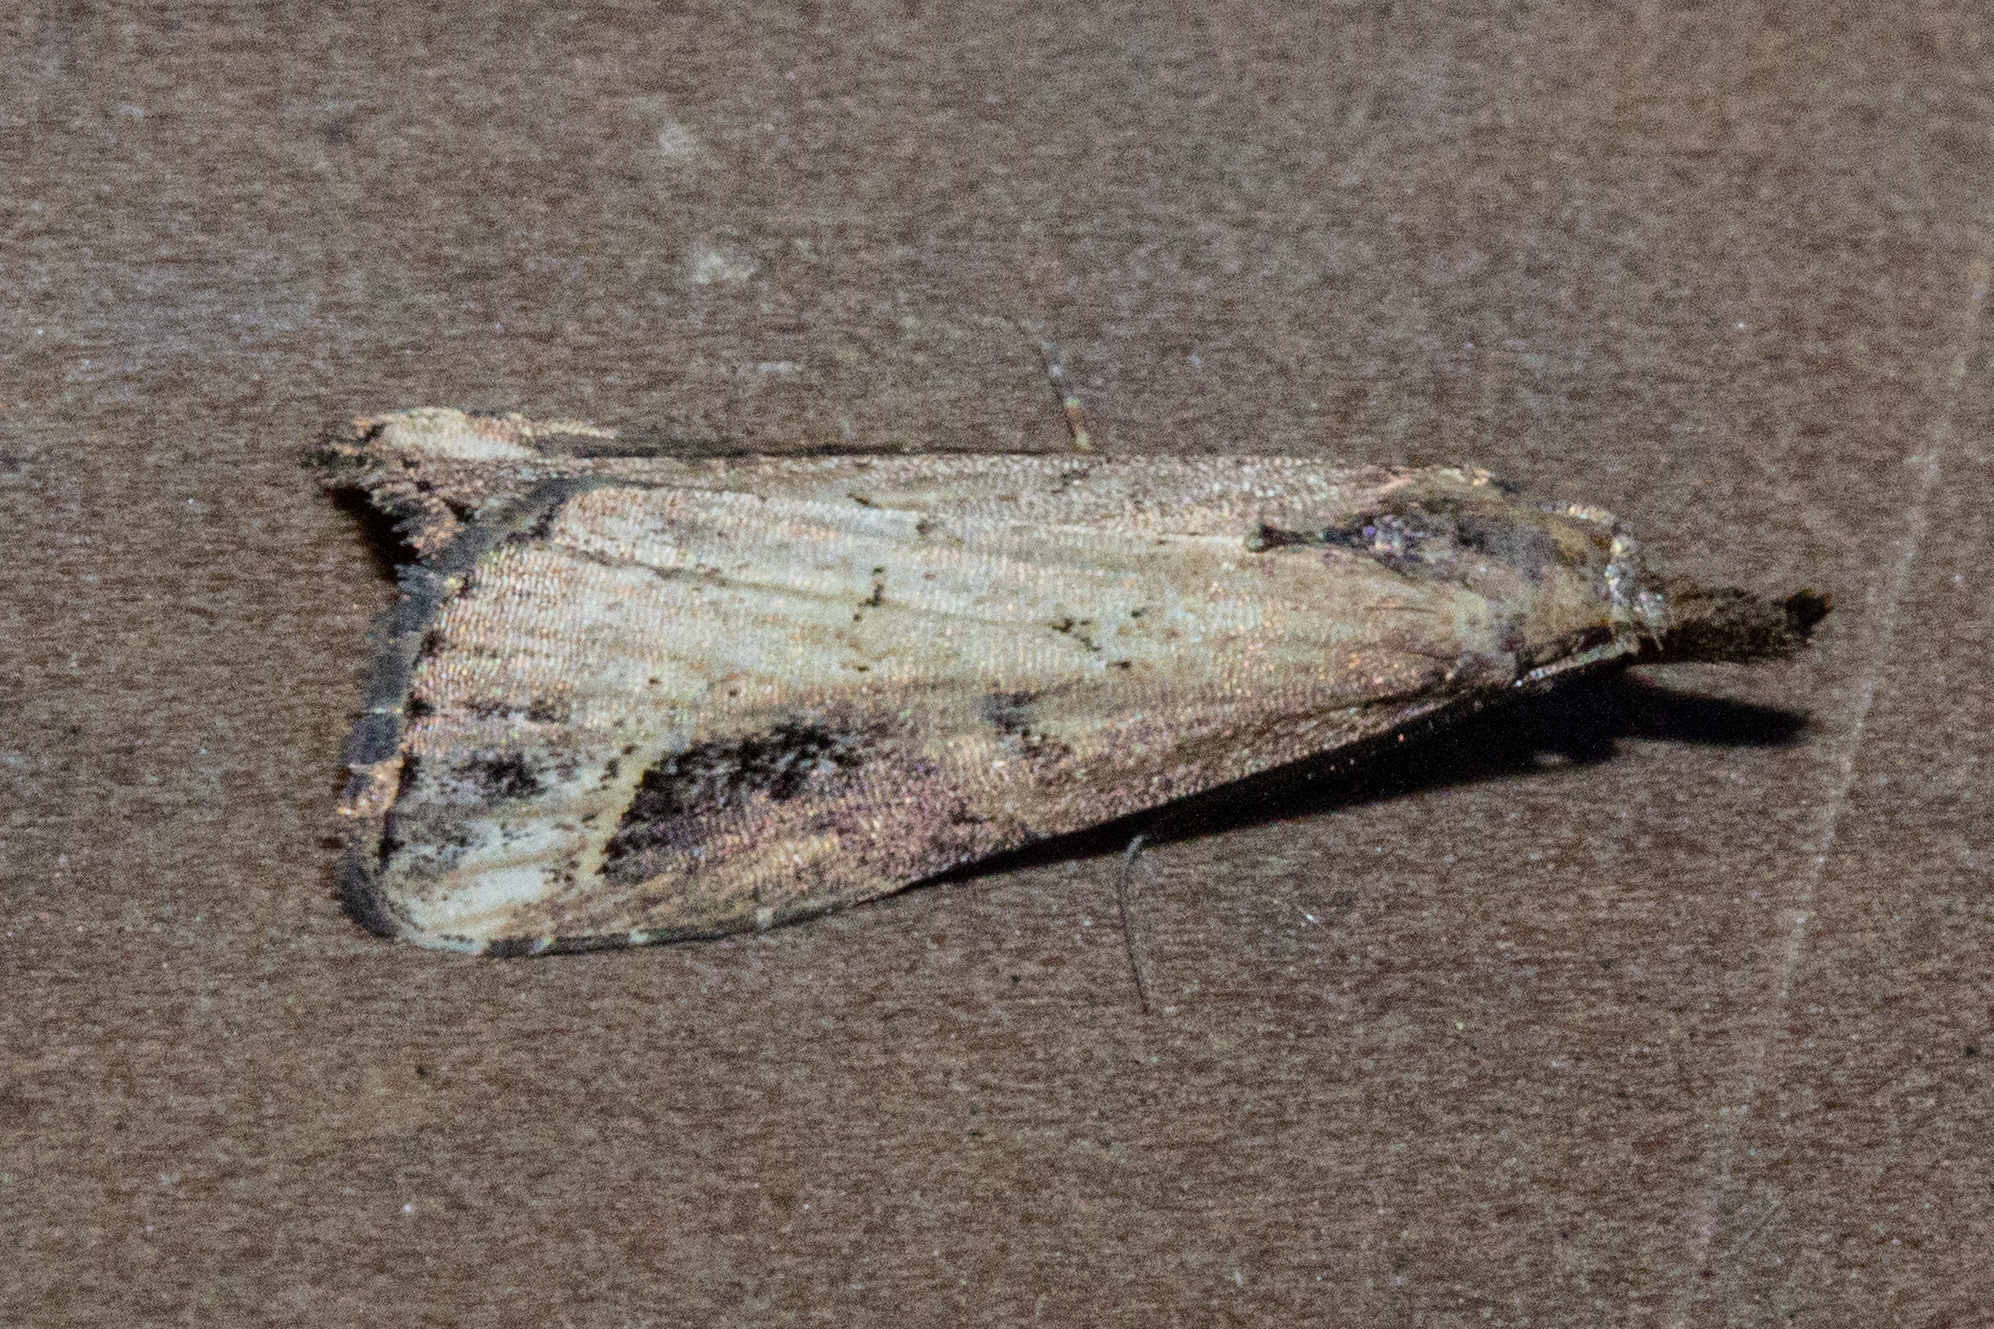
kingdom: Animalia
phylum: Arthropoda
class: Insecta
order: Lepidoptera
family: Erebidae
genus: Schrankia
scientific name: Schrankia costaestrigalis
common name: Pinion-streaked snout
